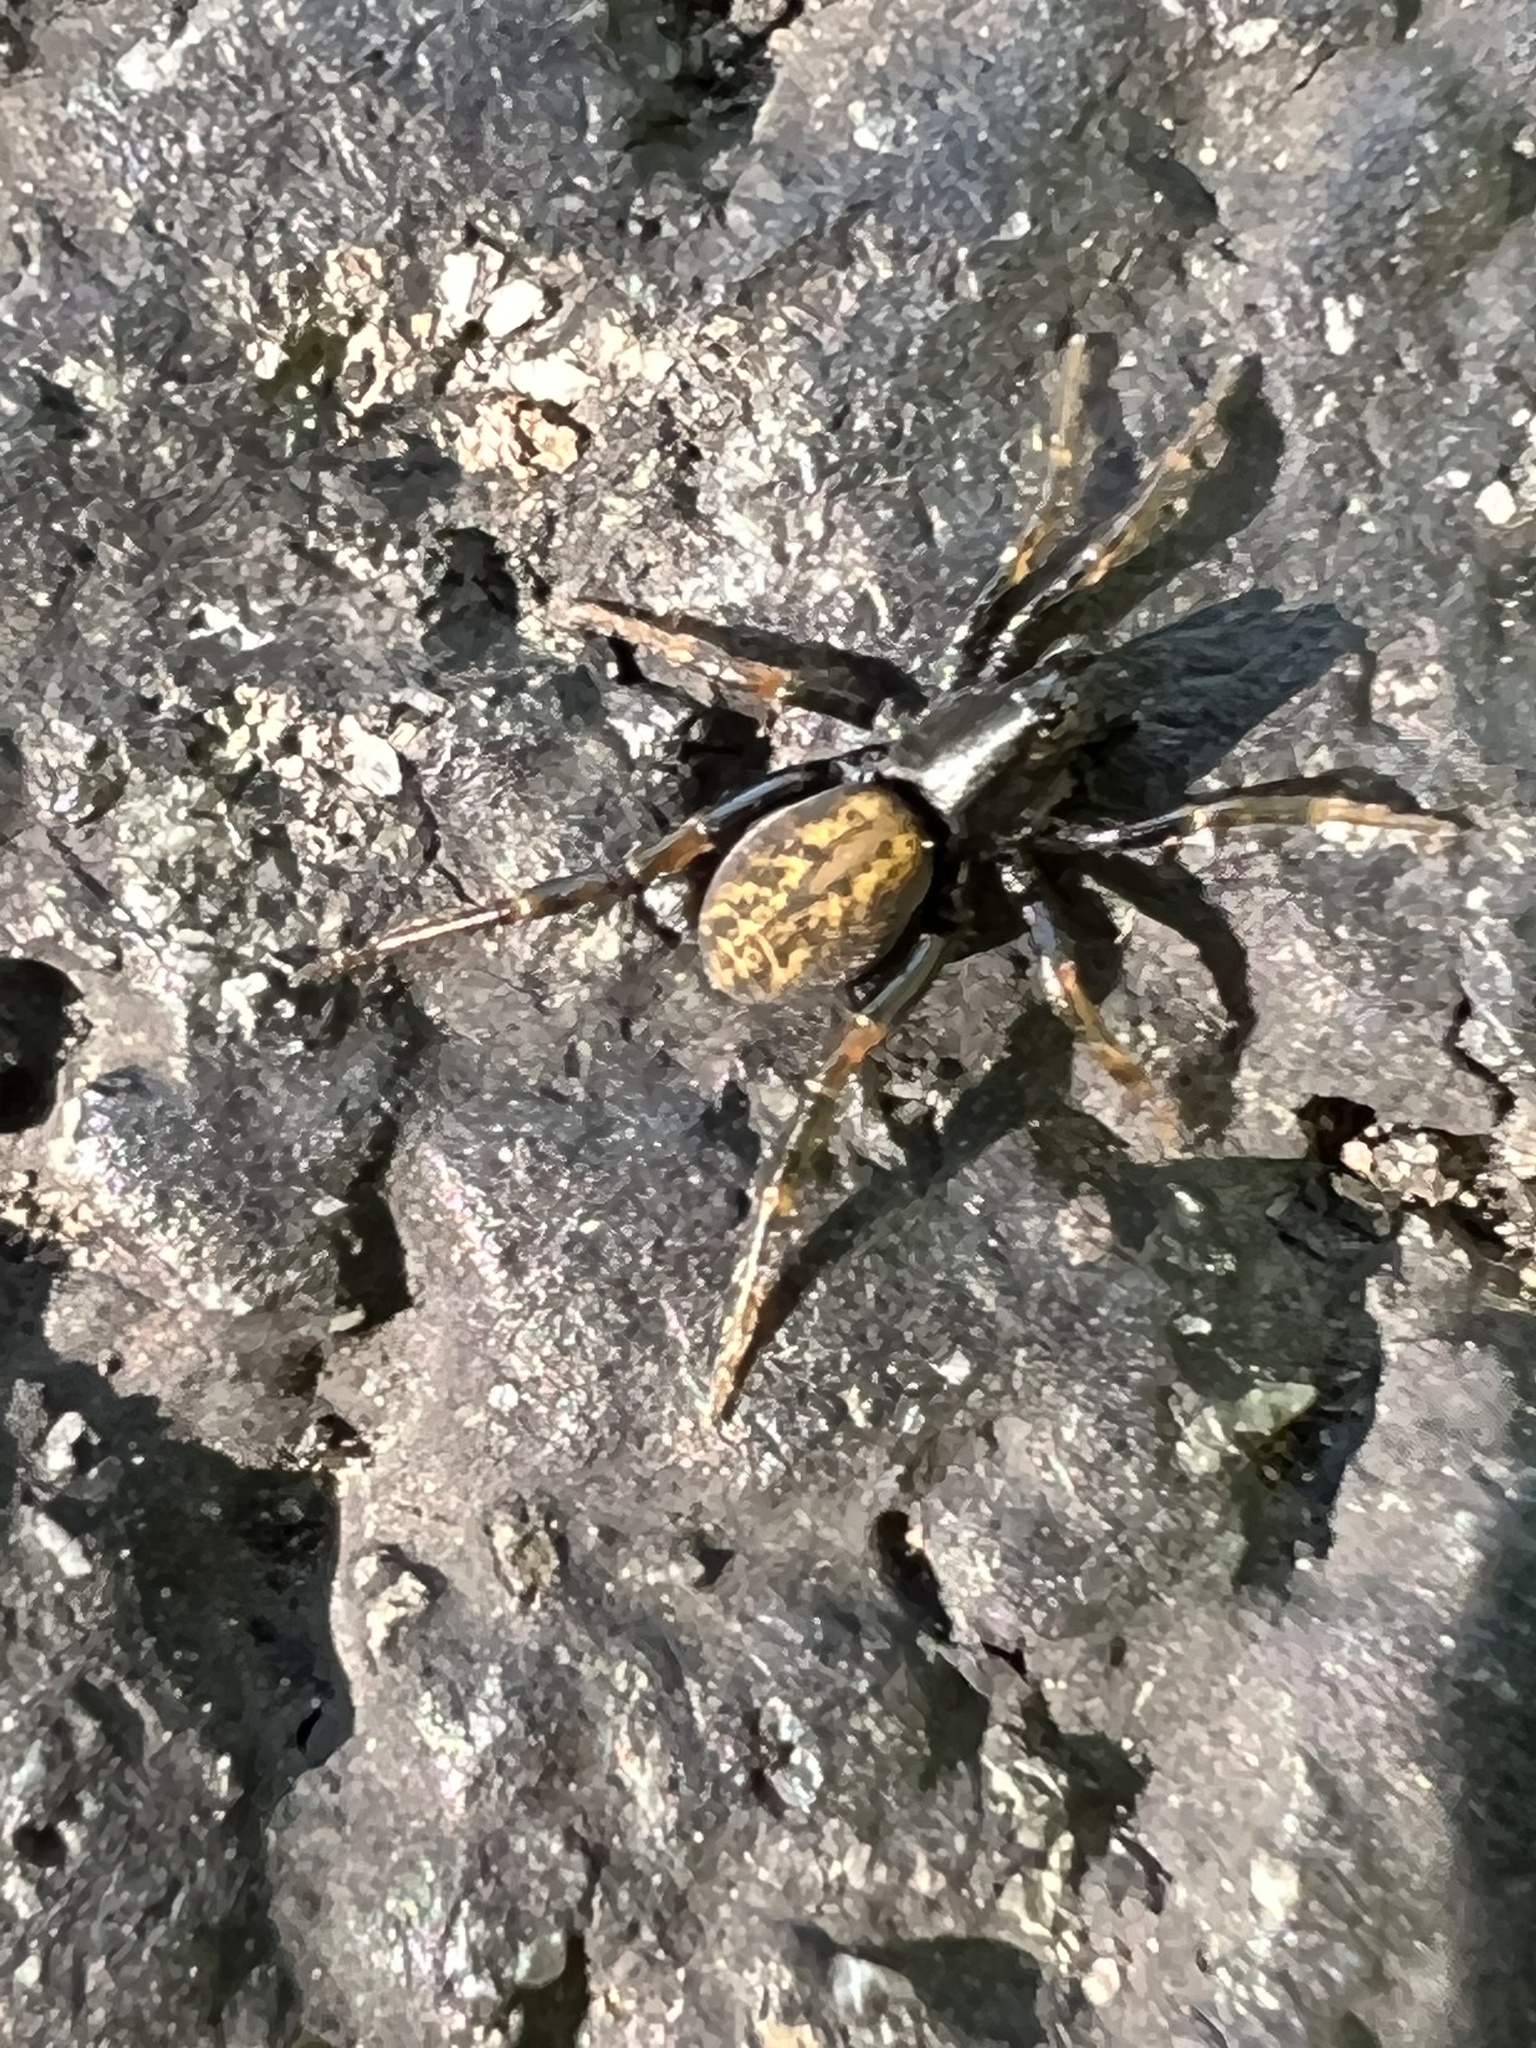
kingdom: Animalia
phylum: Arthropoda
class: Arachnida
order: Araneae
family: Lycosidae
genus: Allocosa
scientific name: Allocosa funerea
